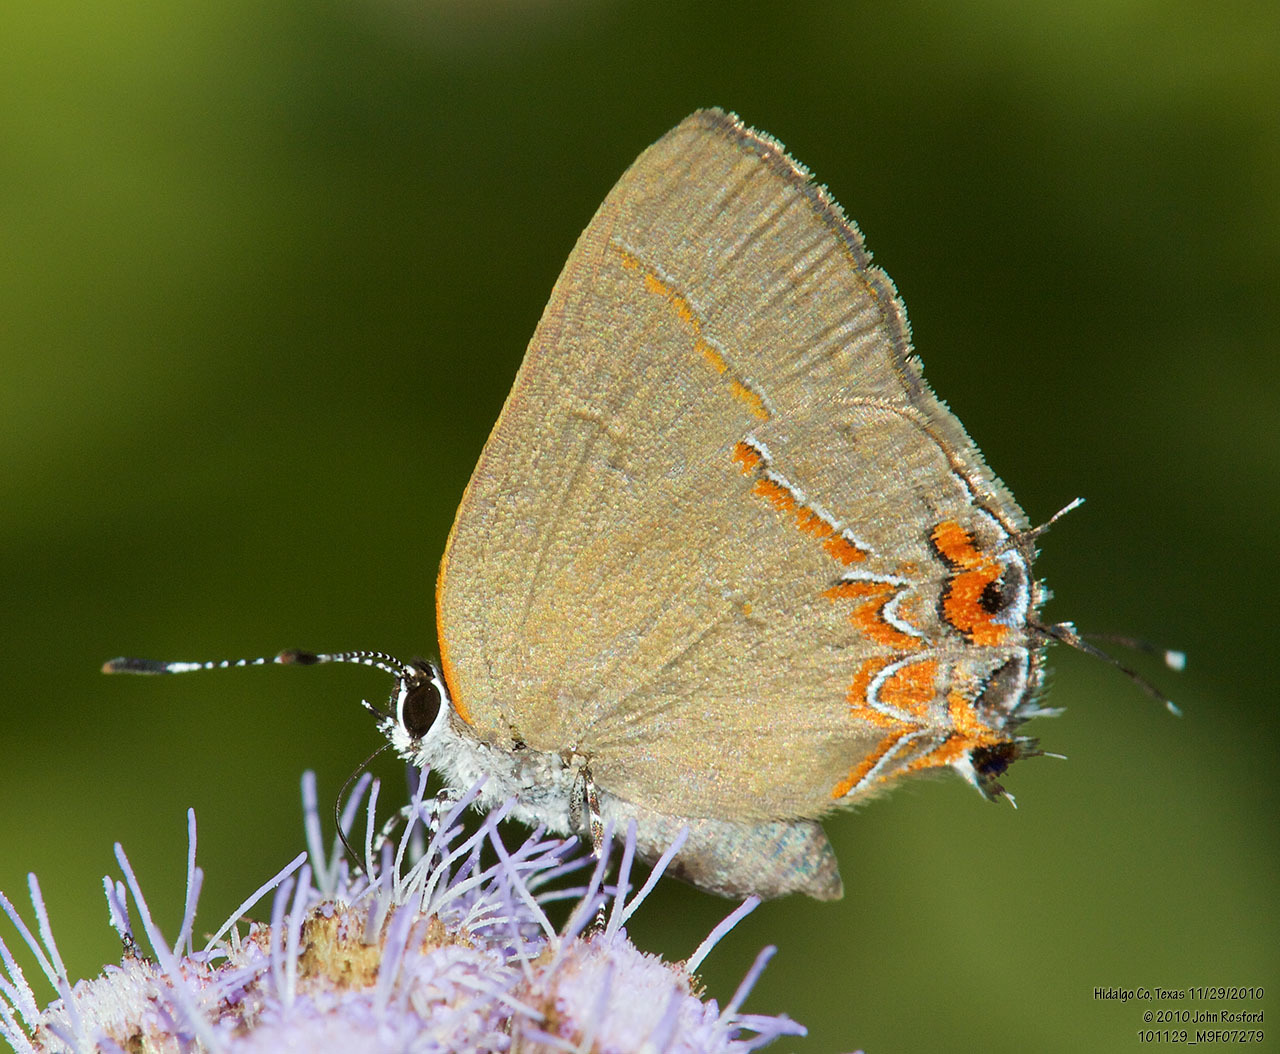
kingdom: Animalia
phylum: Arthropoda
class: Insecta
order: Lepidoptera
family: Lycaenidae
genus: Calycopis
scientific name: Calycopis isobeon
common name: Dusky-blue groundstreak
